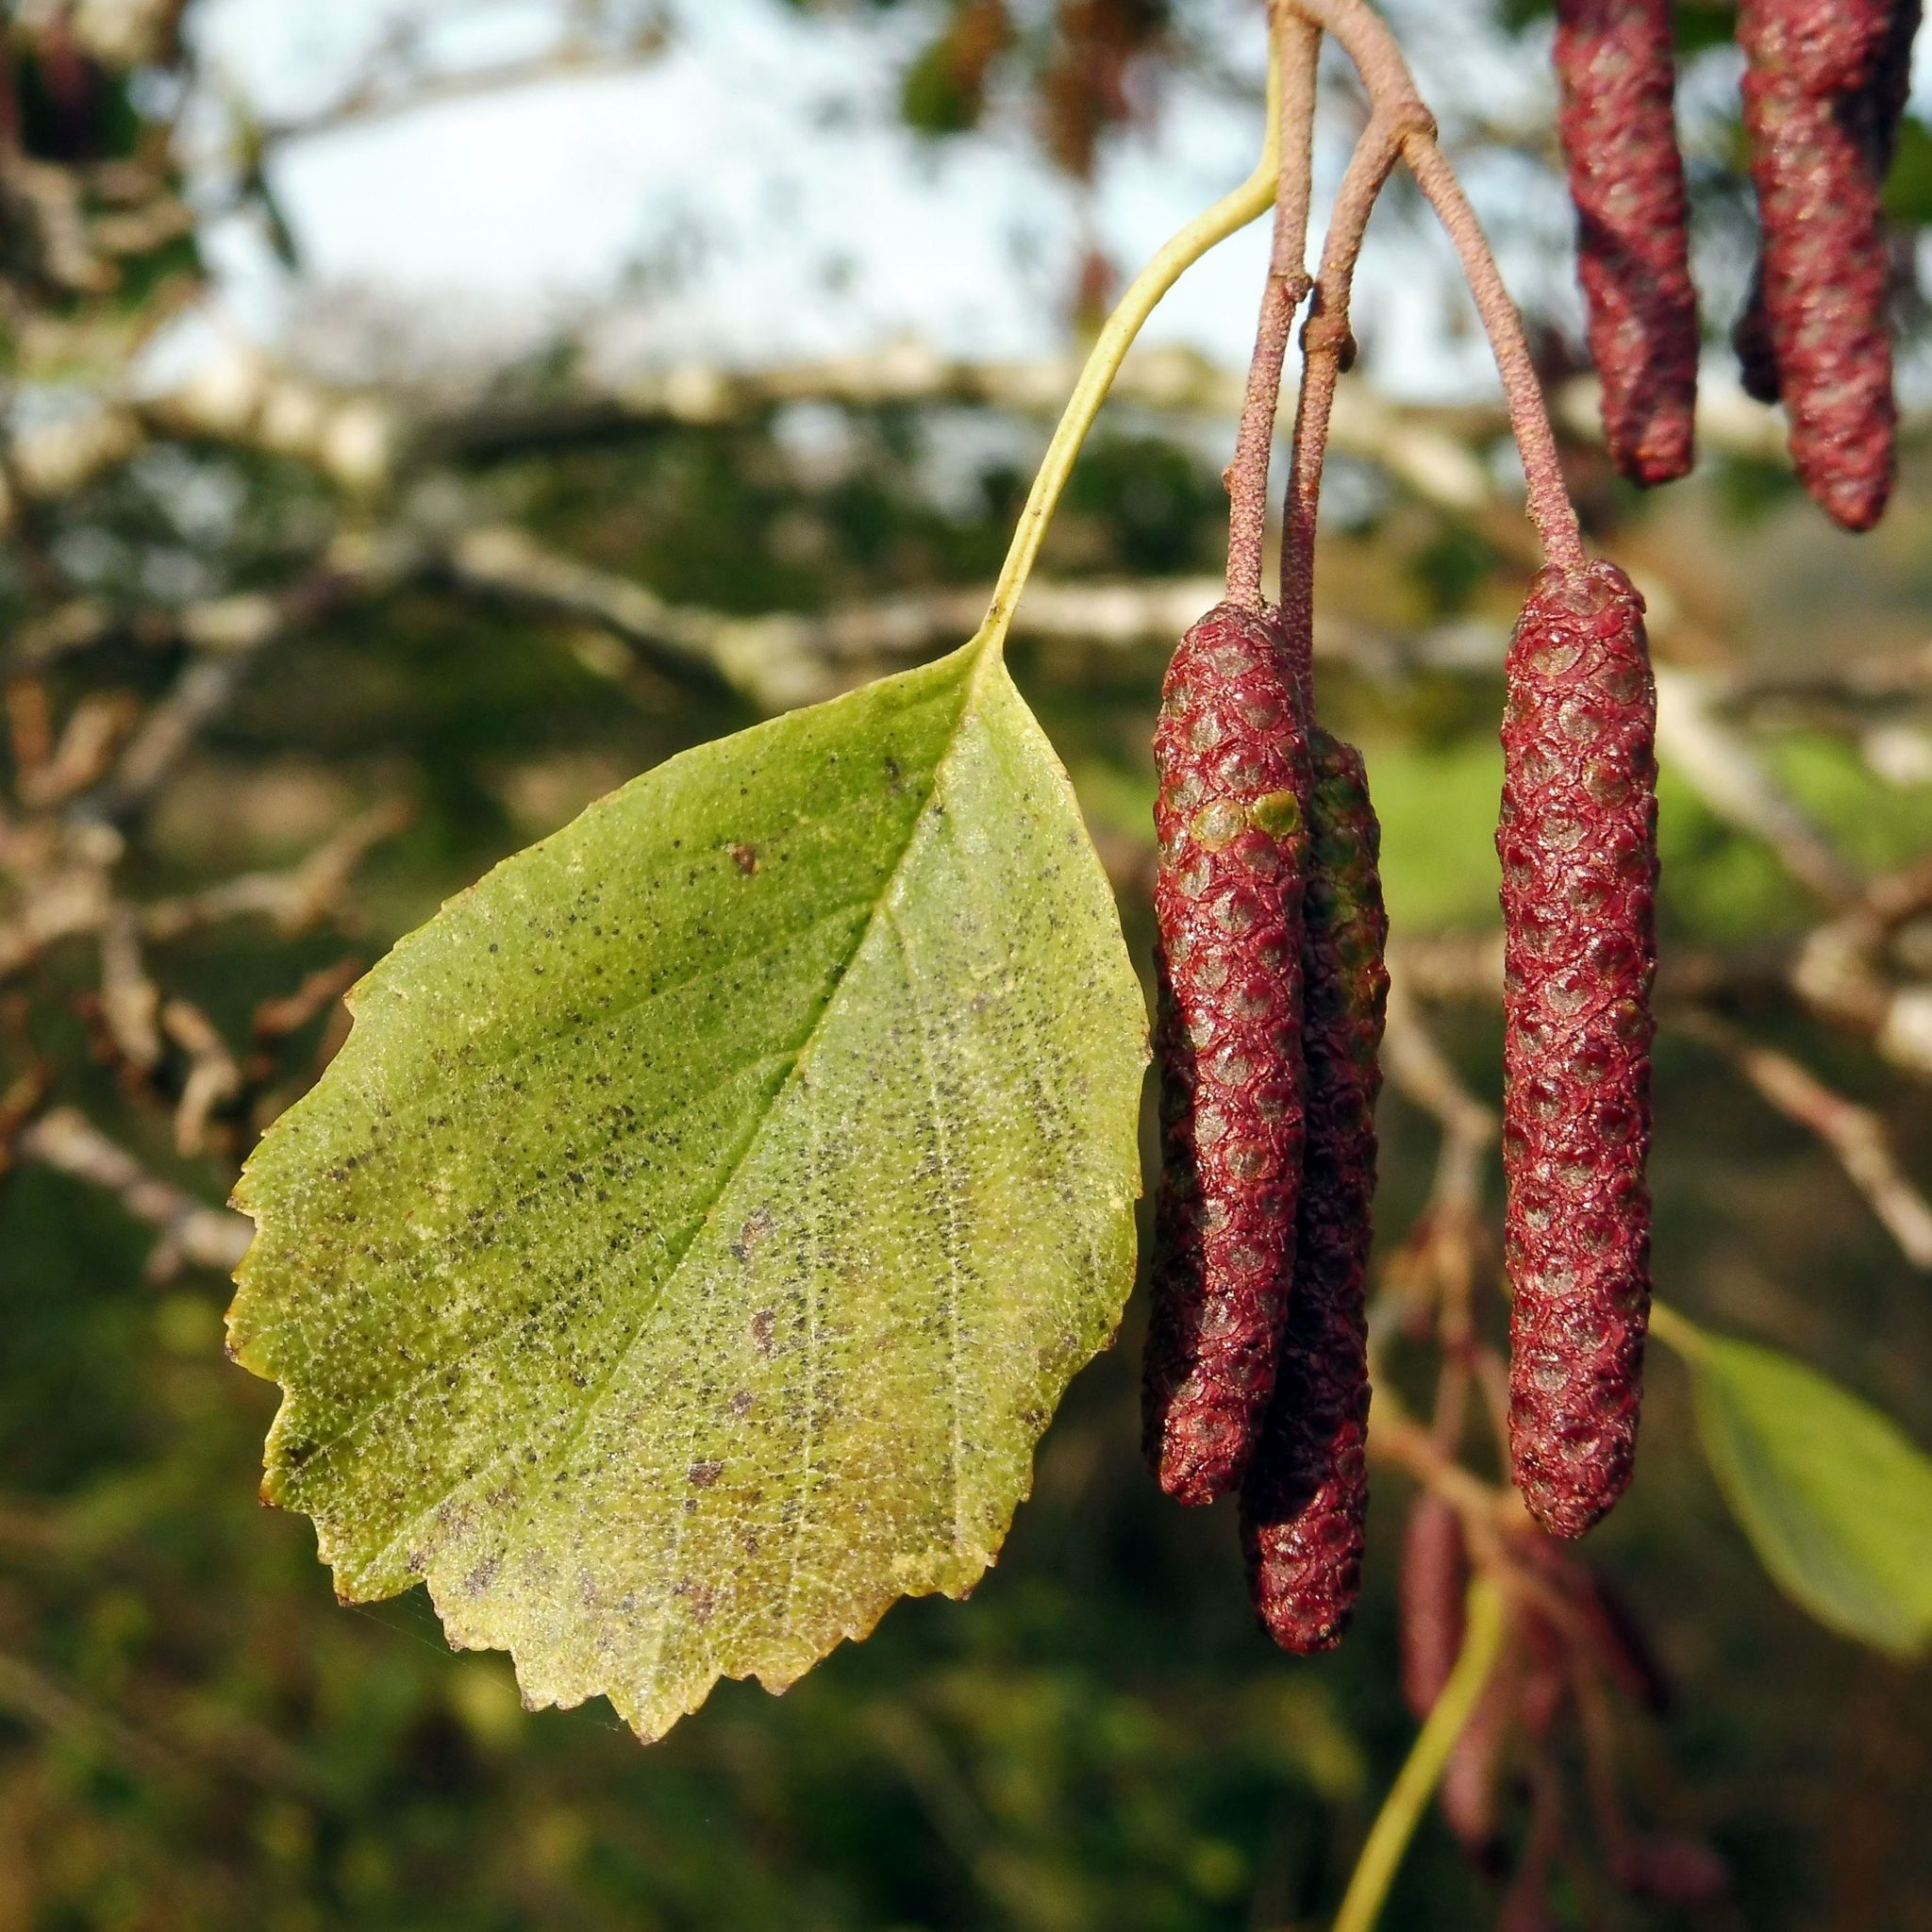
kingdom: Plantae
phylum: Tracheophyta
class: Magnoliopsida
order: Fagales
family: Betulaceae
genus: Alnus
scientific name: Alnus glutinosa
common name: Black alder
